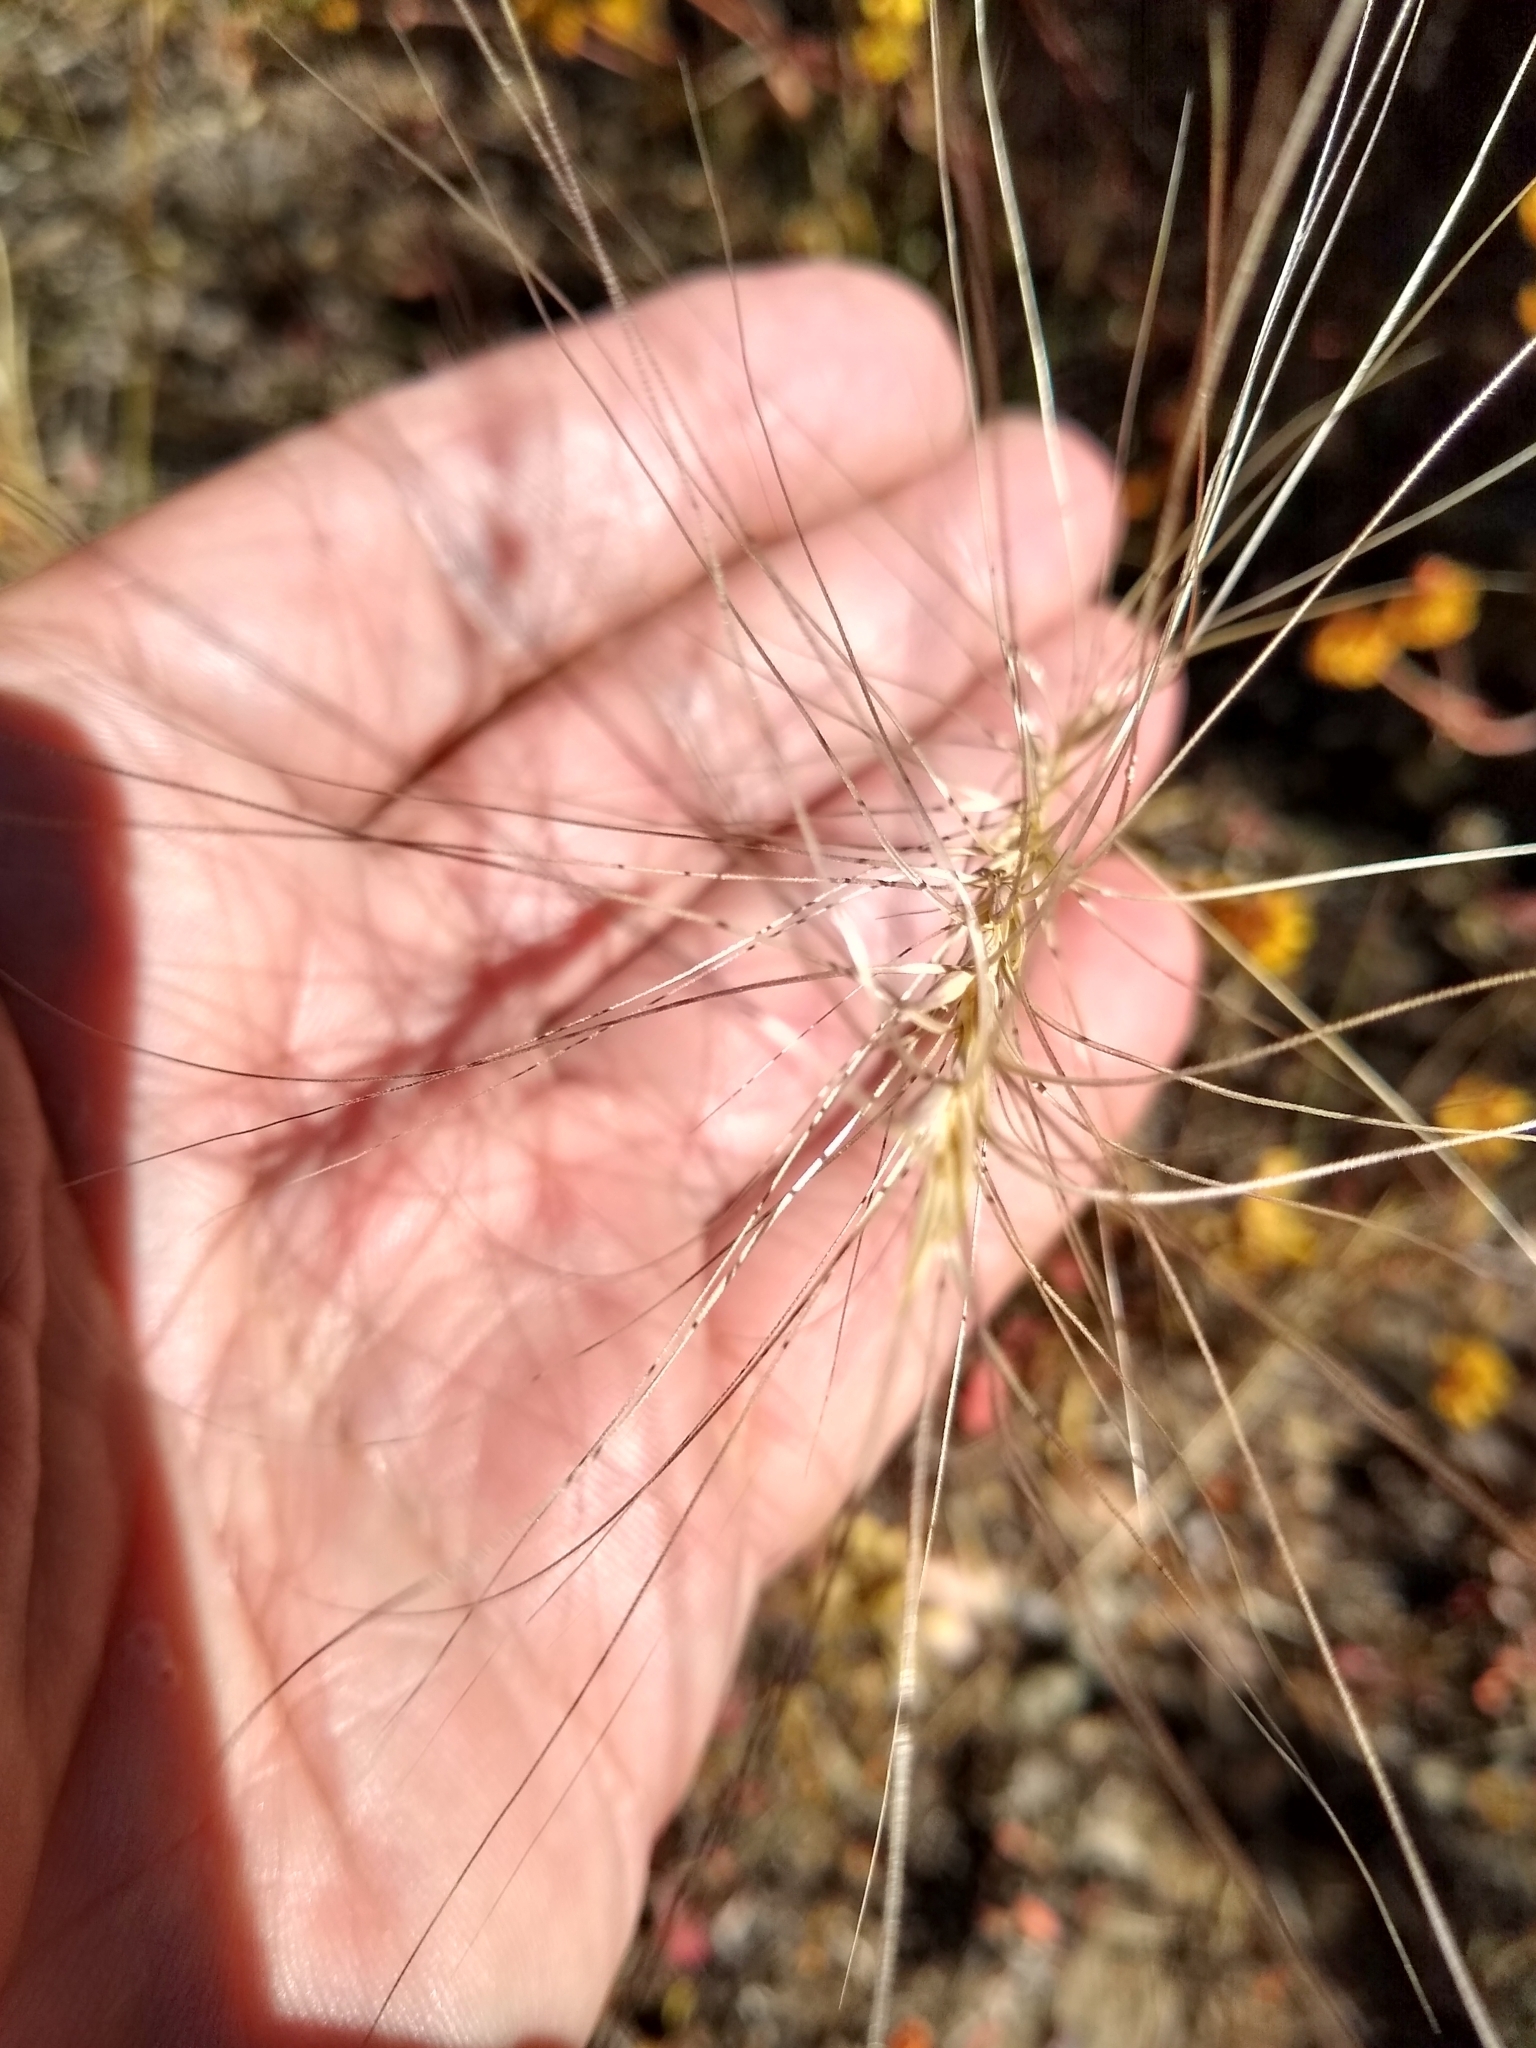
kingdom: Plantae
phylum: Tracheophyta
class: Liliopsida
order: Poales
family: Poaceae
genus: Elymus
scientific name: Elymus elymoides
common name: Bottlebrush squirreltail
